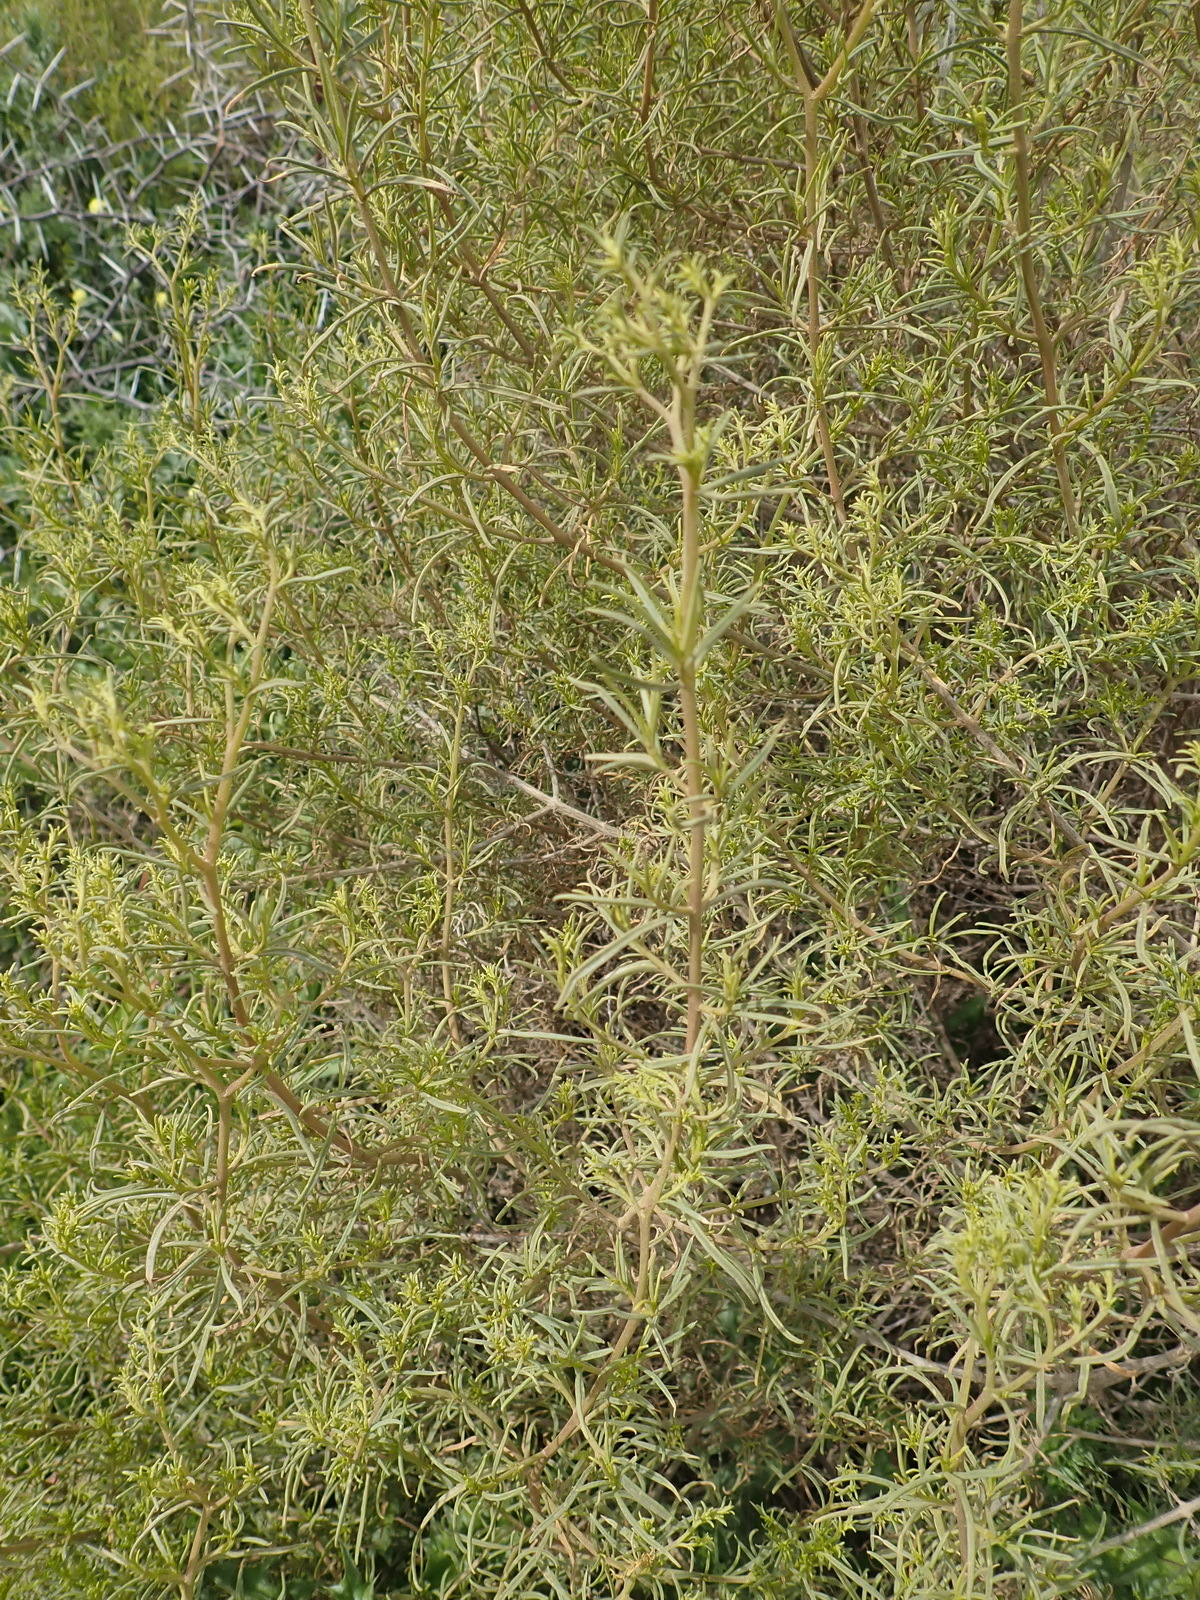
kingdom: Plantae
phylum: Tracheophyta
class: Magnoliopsida
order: Caryophyllales
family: Aizoaceae
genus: Aizoon
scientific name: Aizoon africanum
